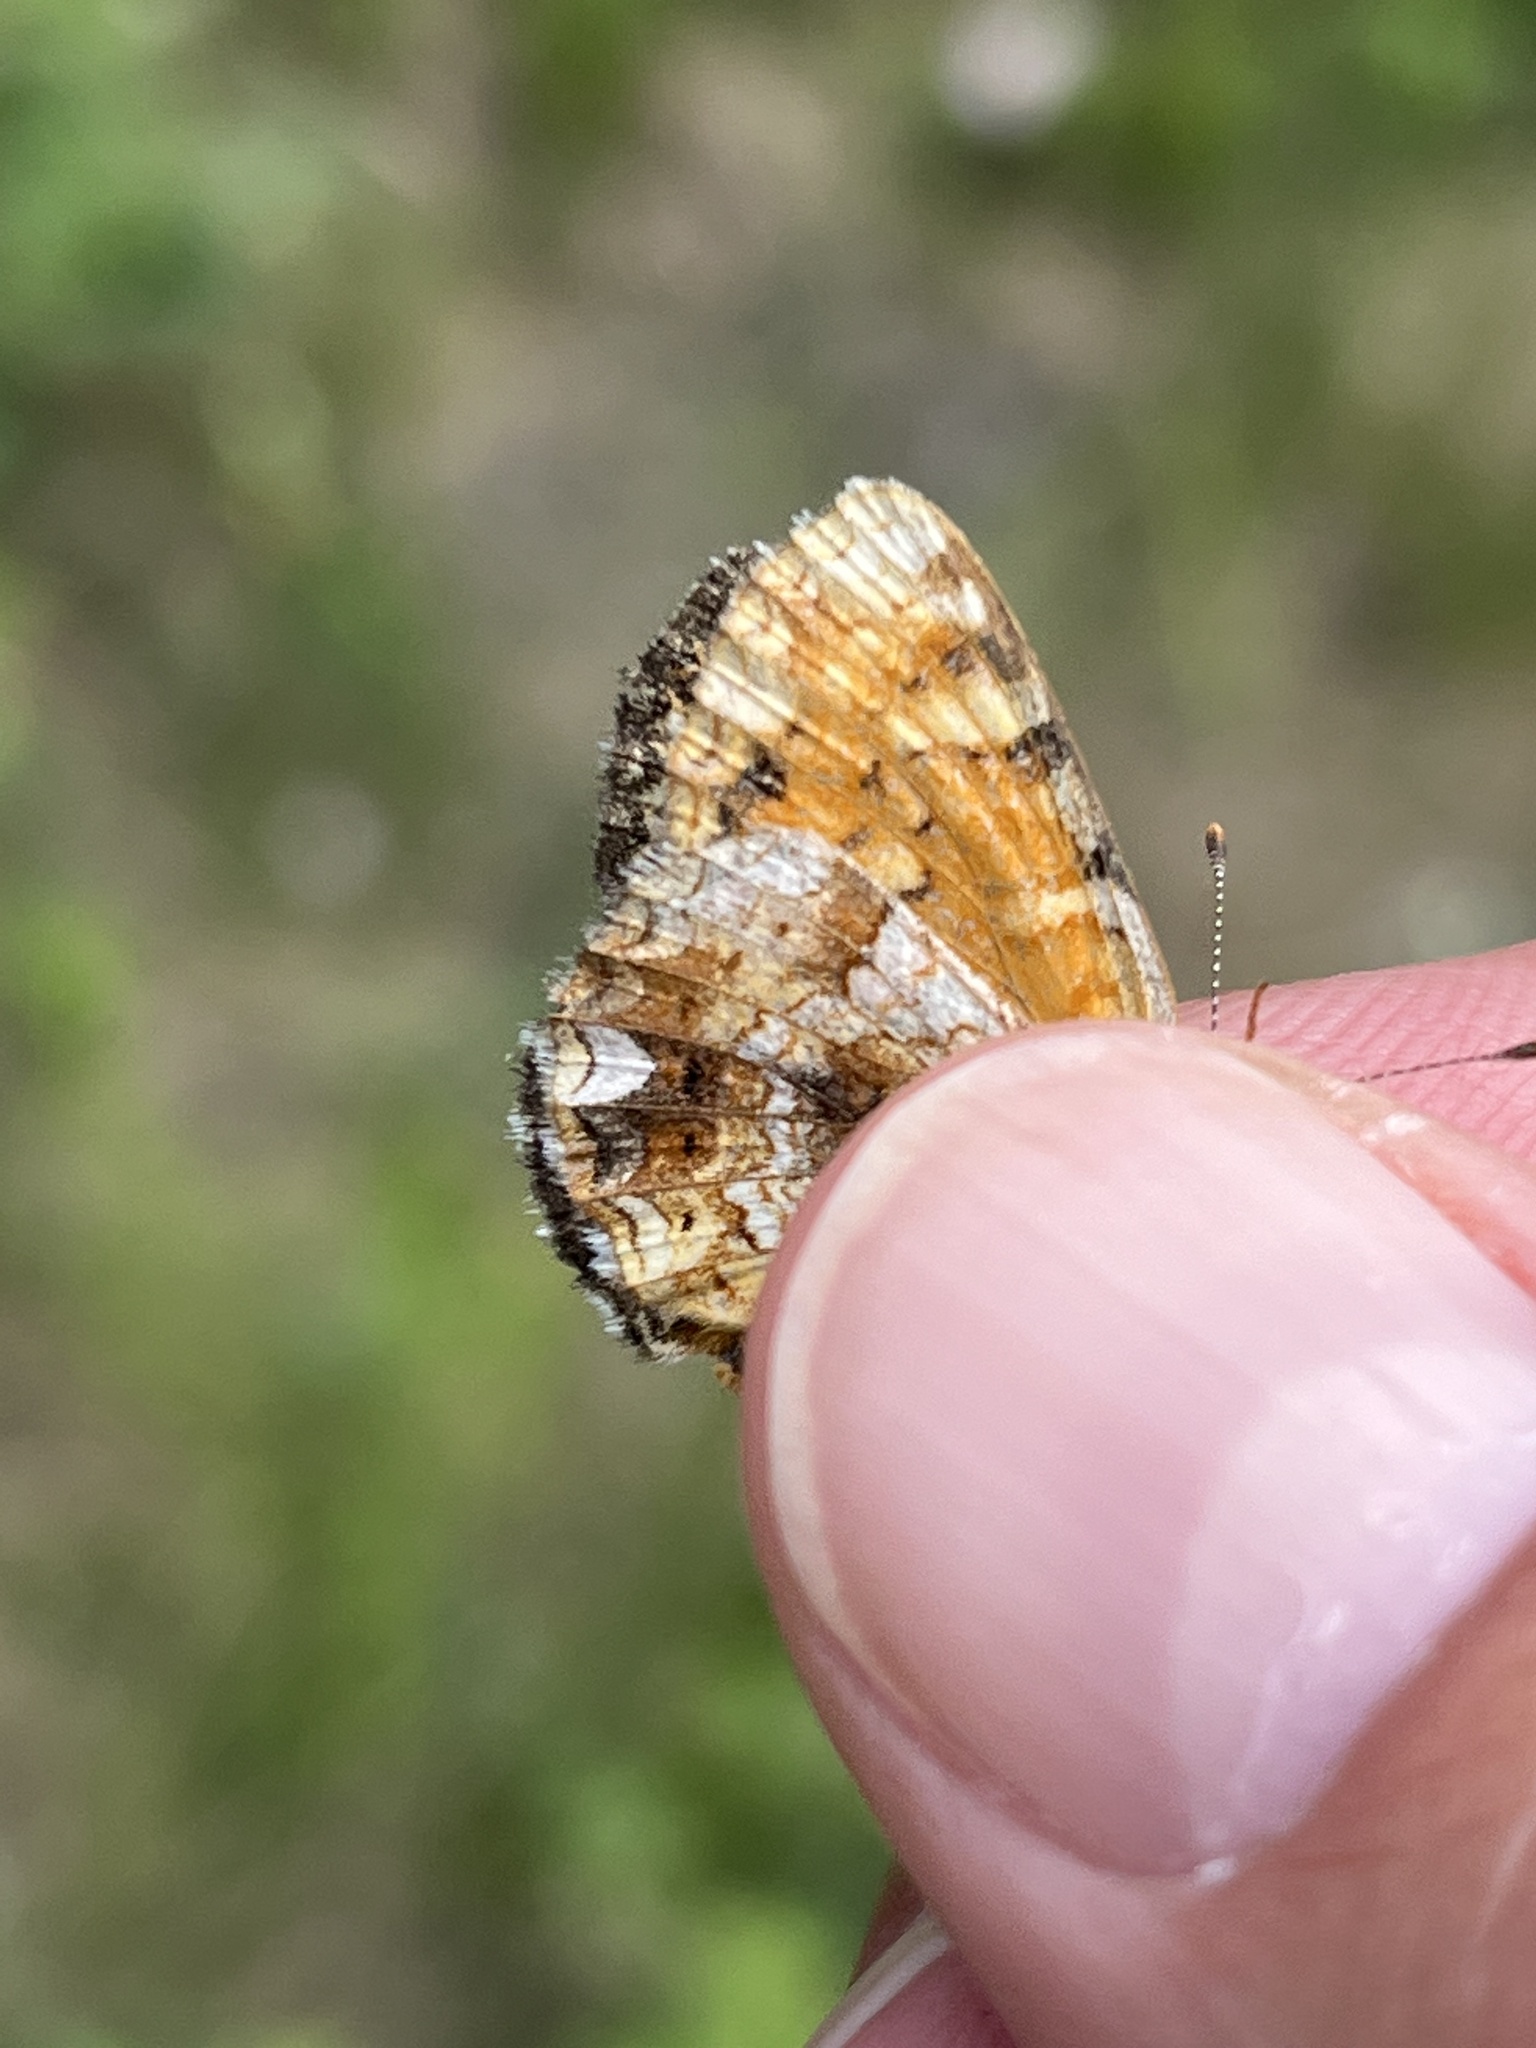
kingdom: Animalia
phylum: Arthropoda
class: Insecta
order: Lepidoptera
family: Nymphalidae
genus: Phyciodes
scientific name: Phyciodes tharos
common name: Pearl crescent
